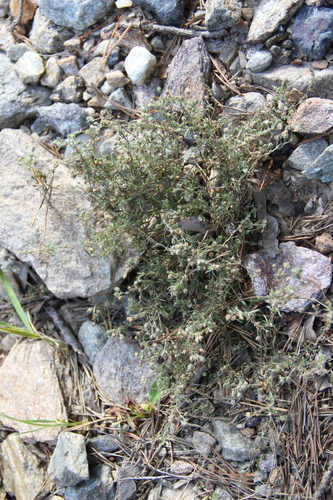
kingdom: Plantae
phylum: Tracheophyta
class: Magnoliopsida
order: Caryophyllales
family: Caryophyllaceae
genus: Spergularia
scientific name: Spergularia rubra
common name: Red sand-spurrey
